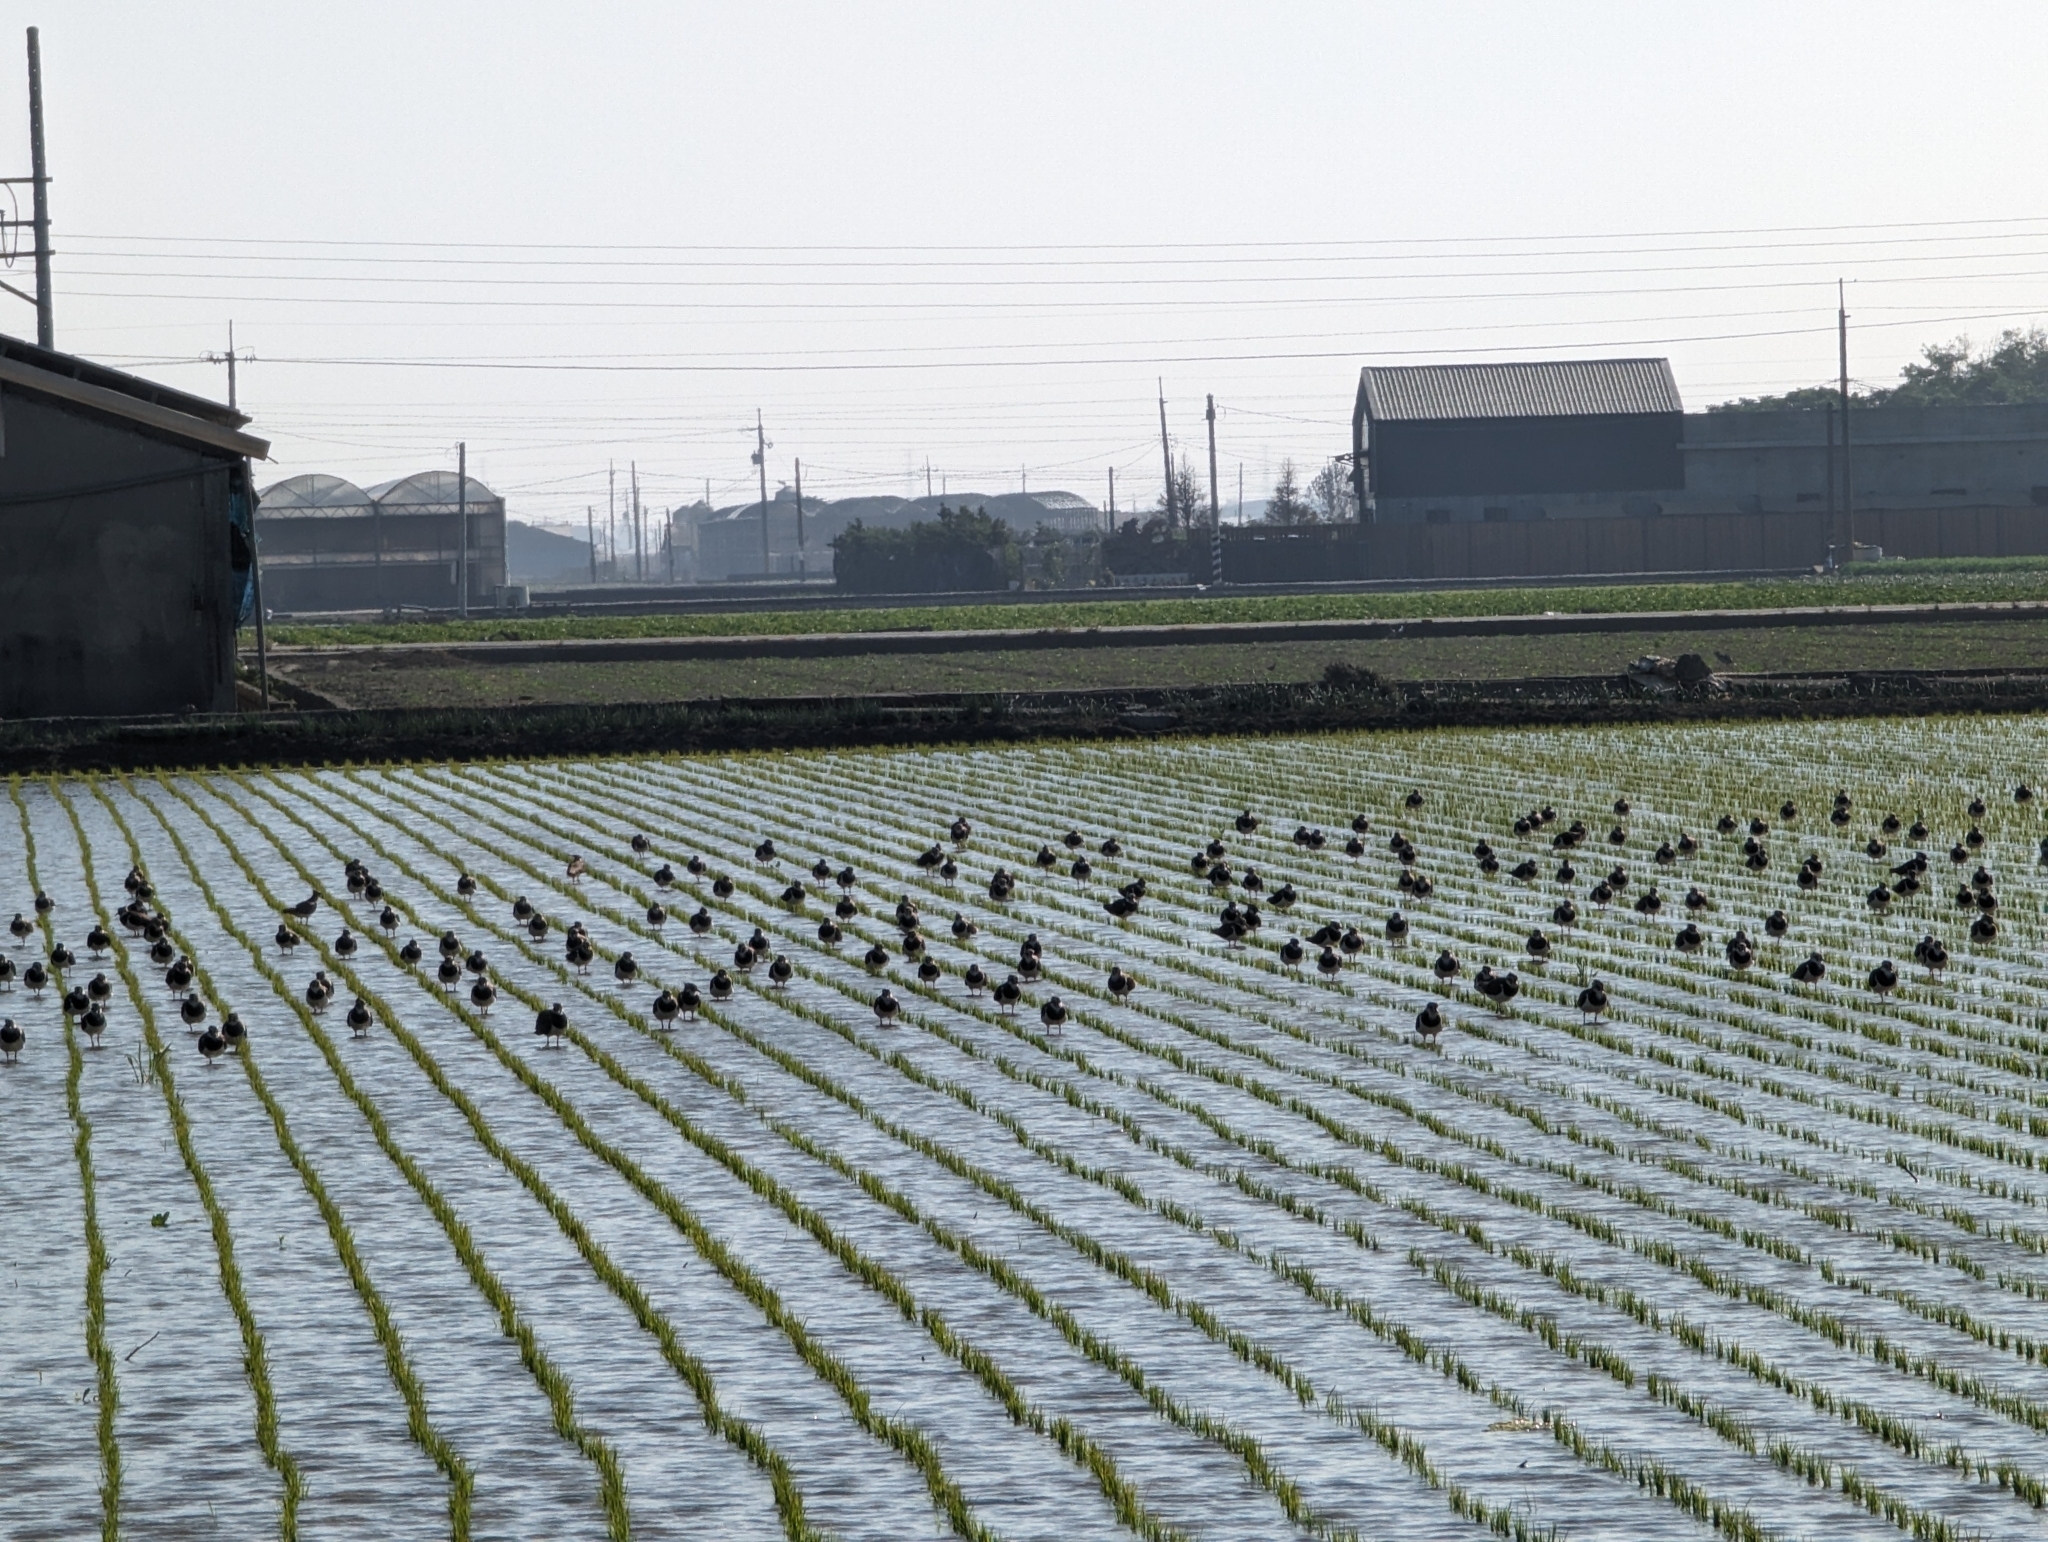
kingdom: Animalia
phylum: Chordata
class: Aves
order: Charadriiformes
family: Charadriidae
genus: Vanellus
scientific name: Vanellus vanellus
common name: Northern lapwing
